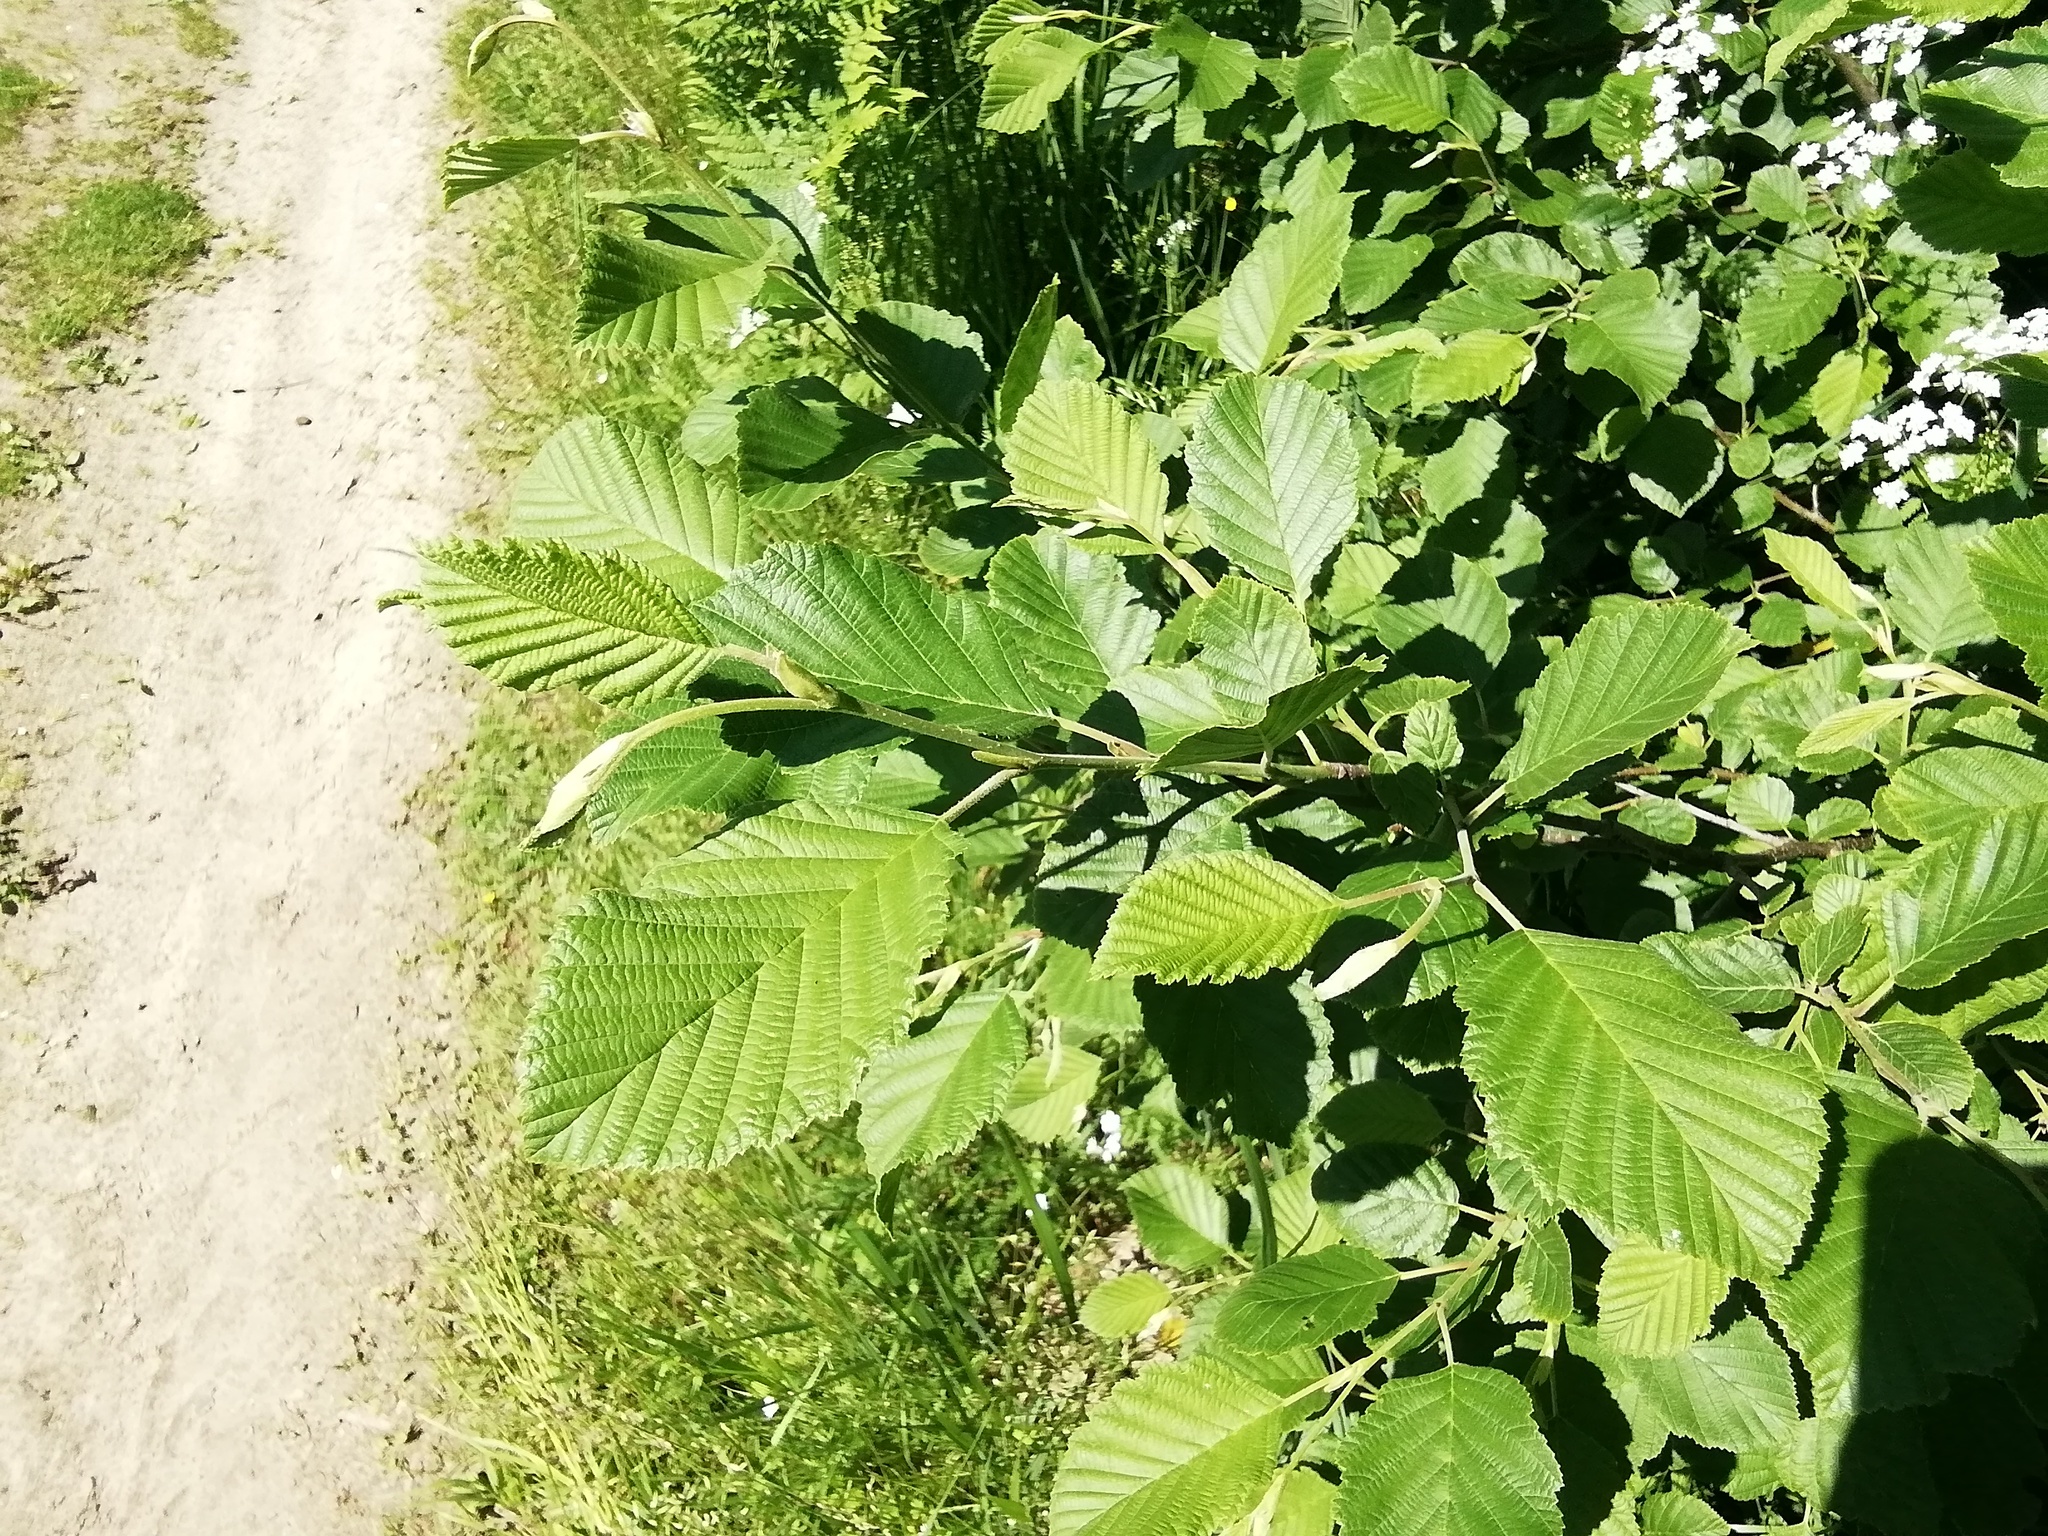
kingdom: Plantae
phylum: Tracheophyta
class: Magnoliopsida
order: Fagales
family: Betulaceae
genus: Alnus
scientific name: Alnus incana
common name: Grey alder
